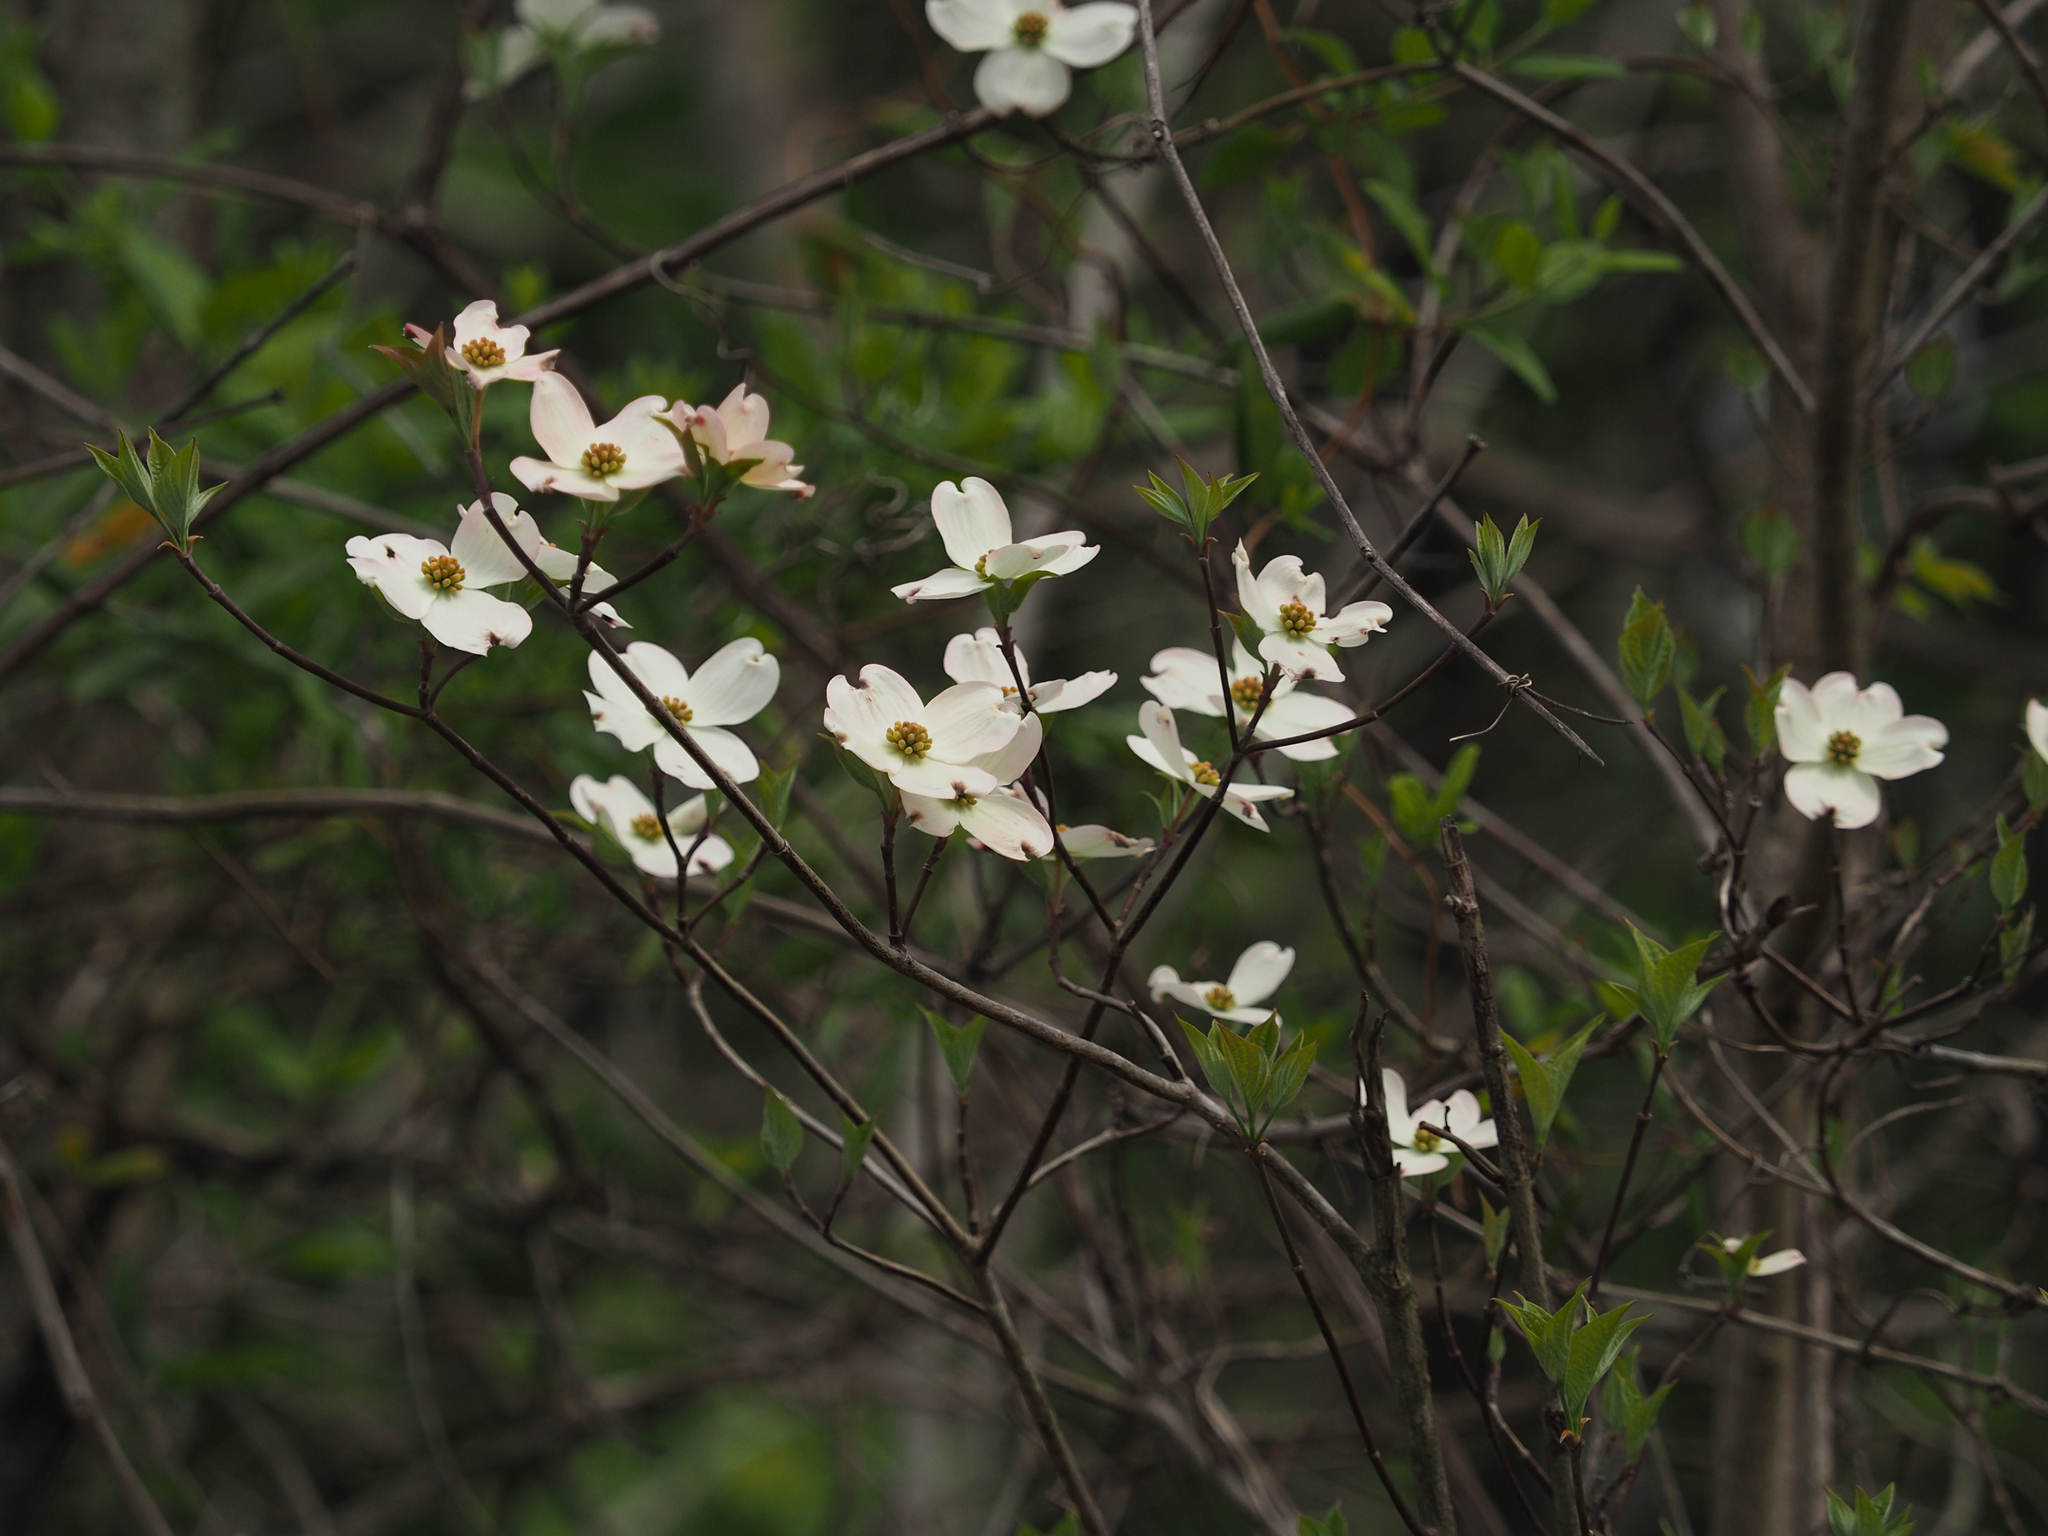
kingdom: Plantae
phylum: Tracheophyta
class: Magnoliopsida
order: Cornales
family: Cornaceae
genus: Cornus
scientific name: Cornus florida
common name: Flowering dogwood
